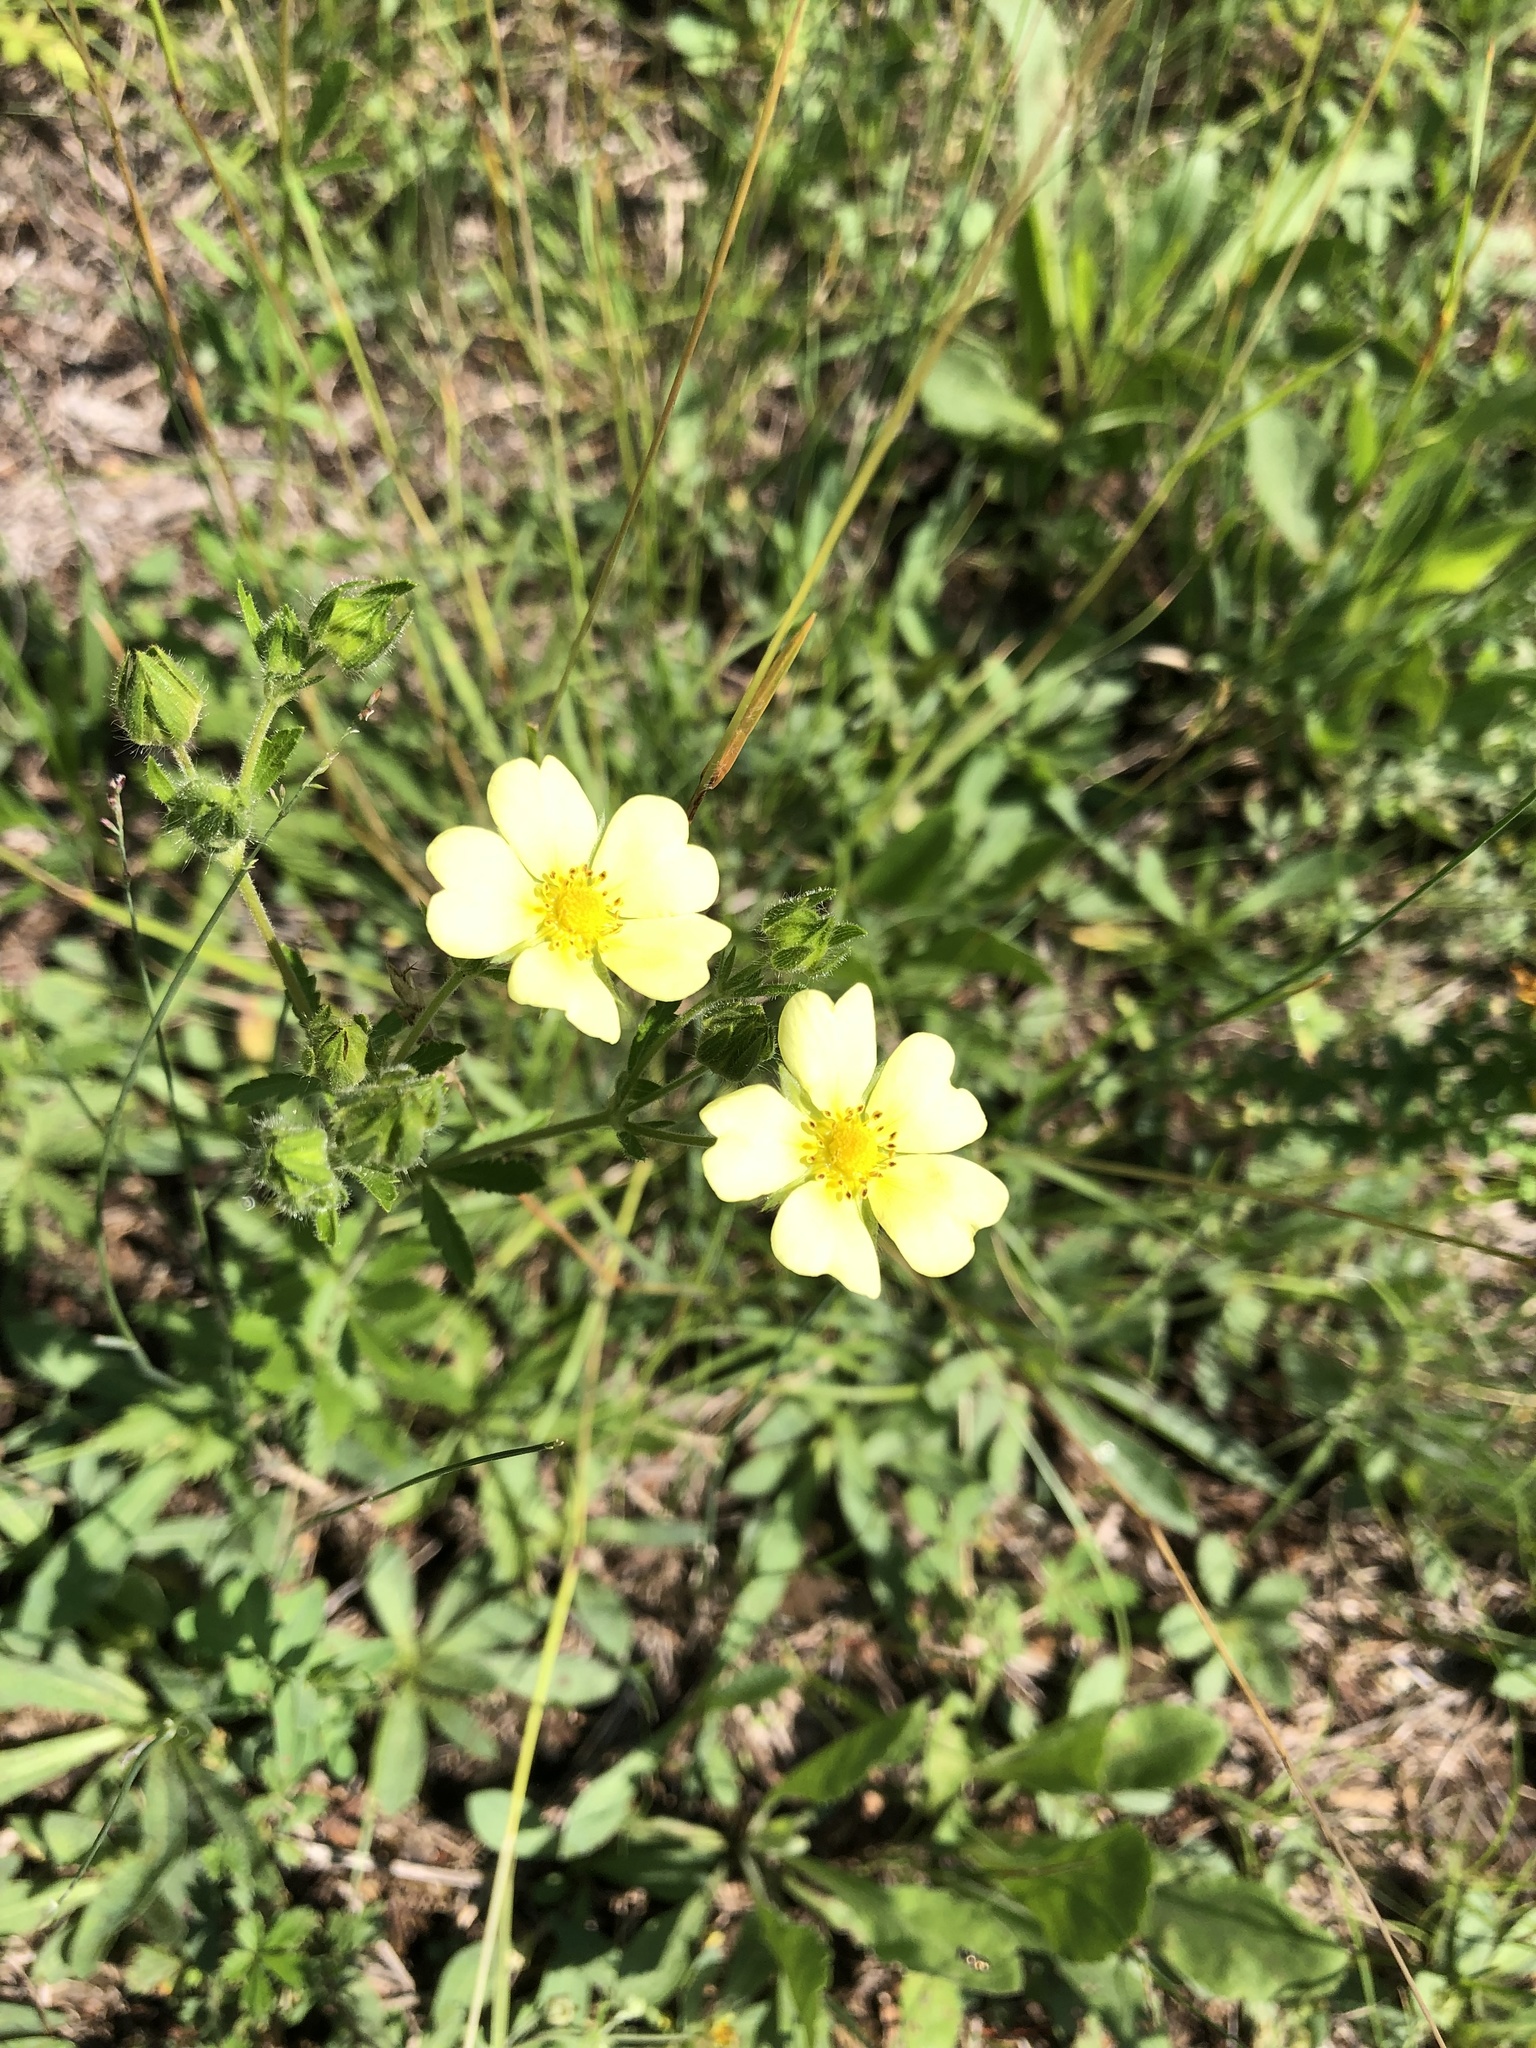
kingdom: Plantae
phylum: Tracheophyta
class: Magnoliopsida
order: Rosales
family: Rosaceae
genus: Potentilla
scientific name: Potentilla recta
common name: Sulphur cinquefoil
